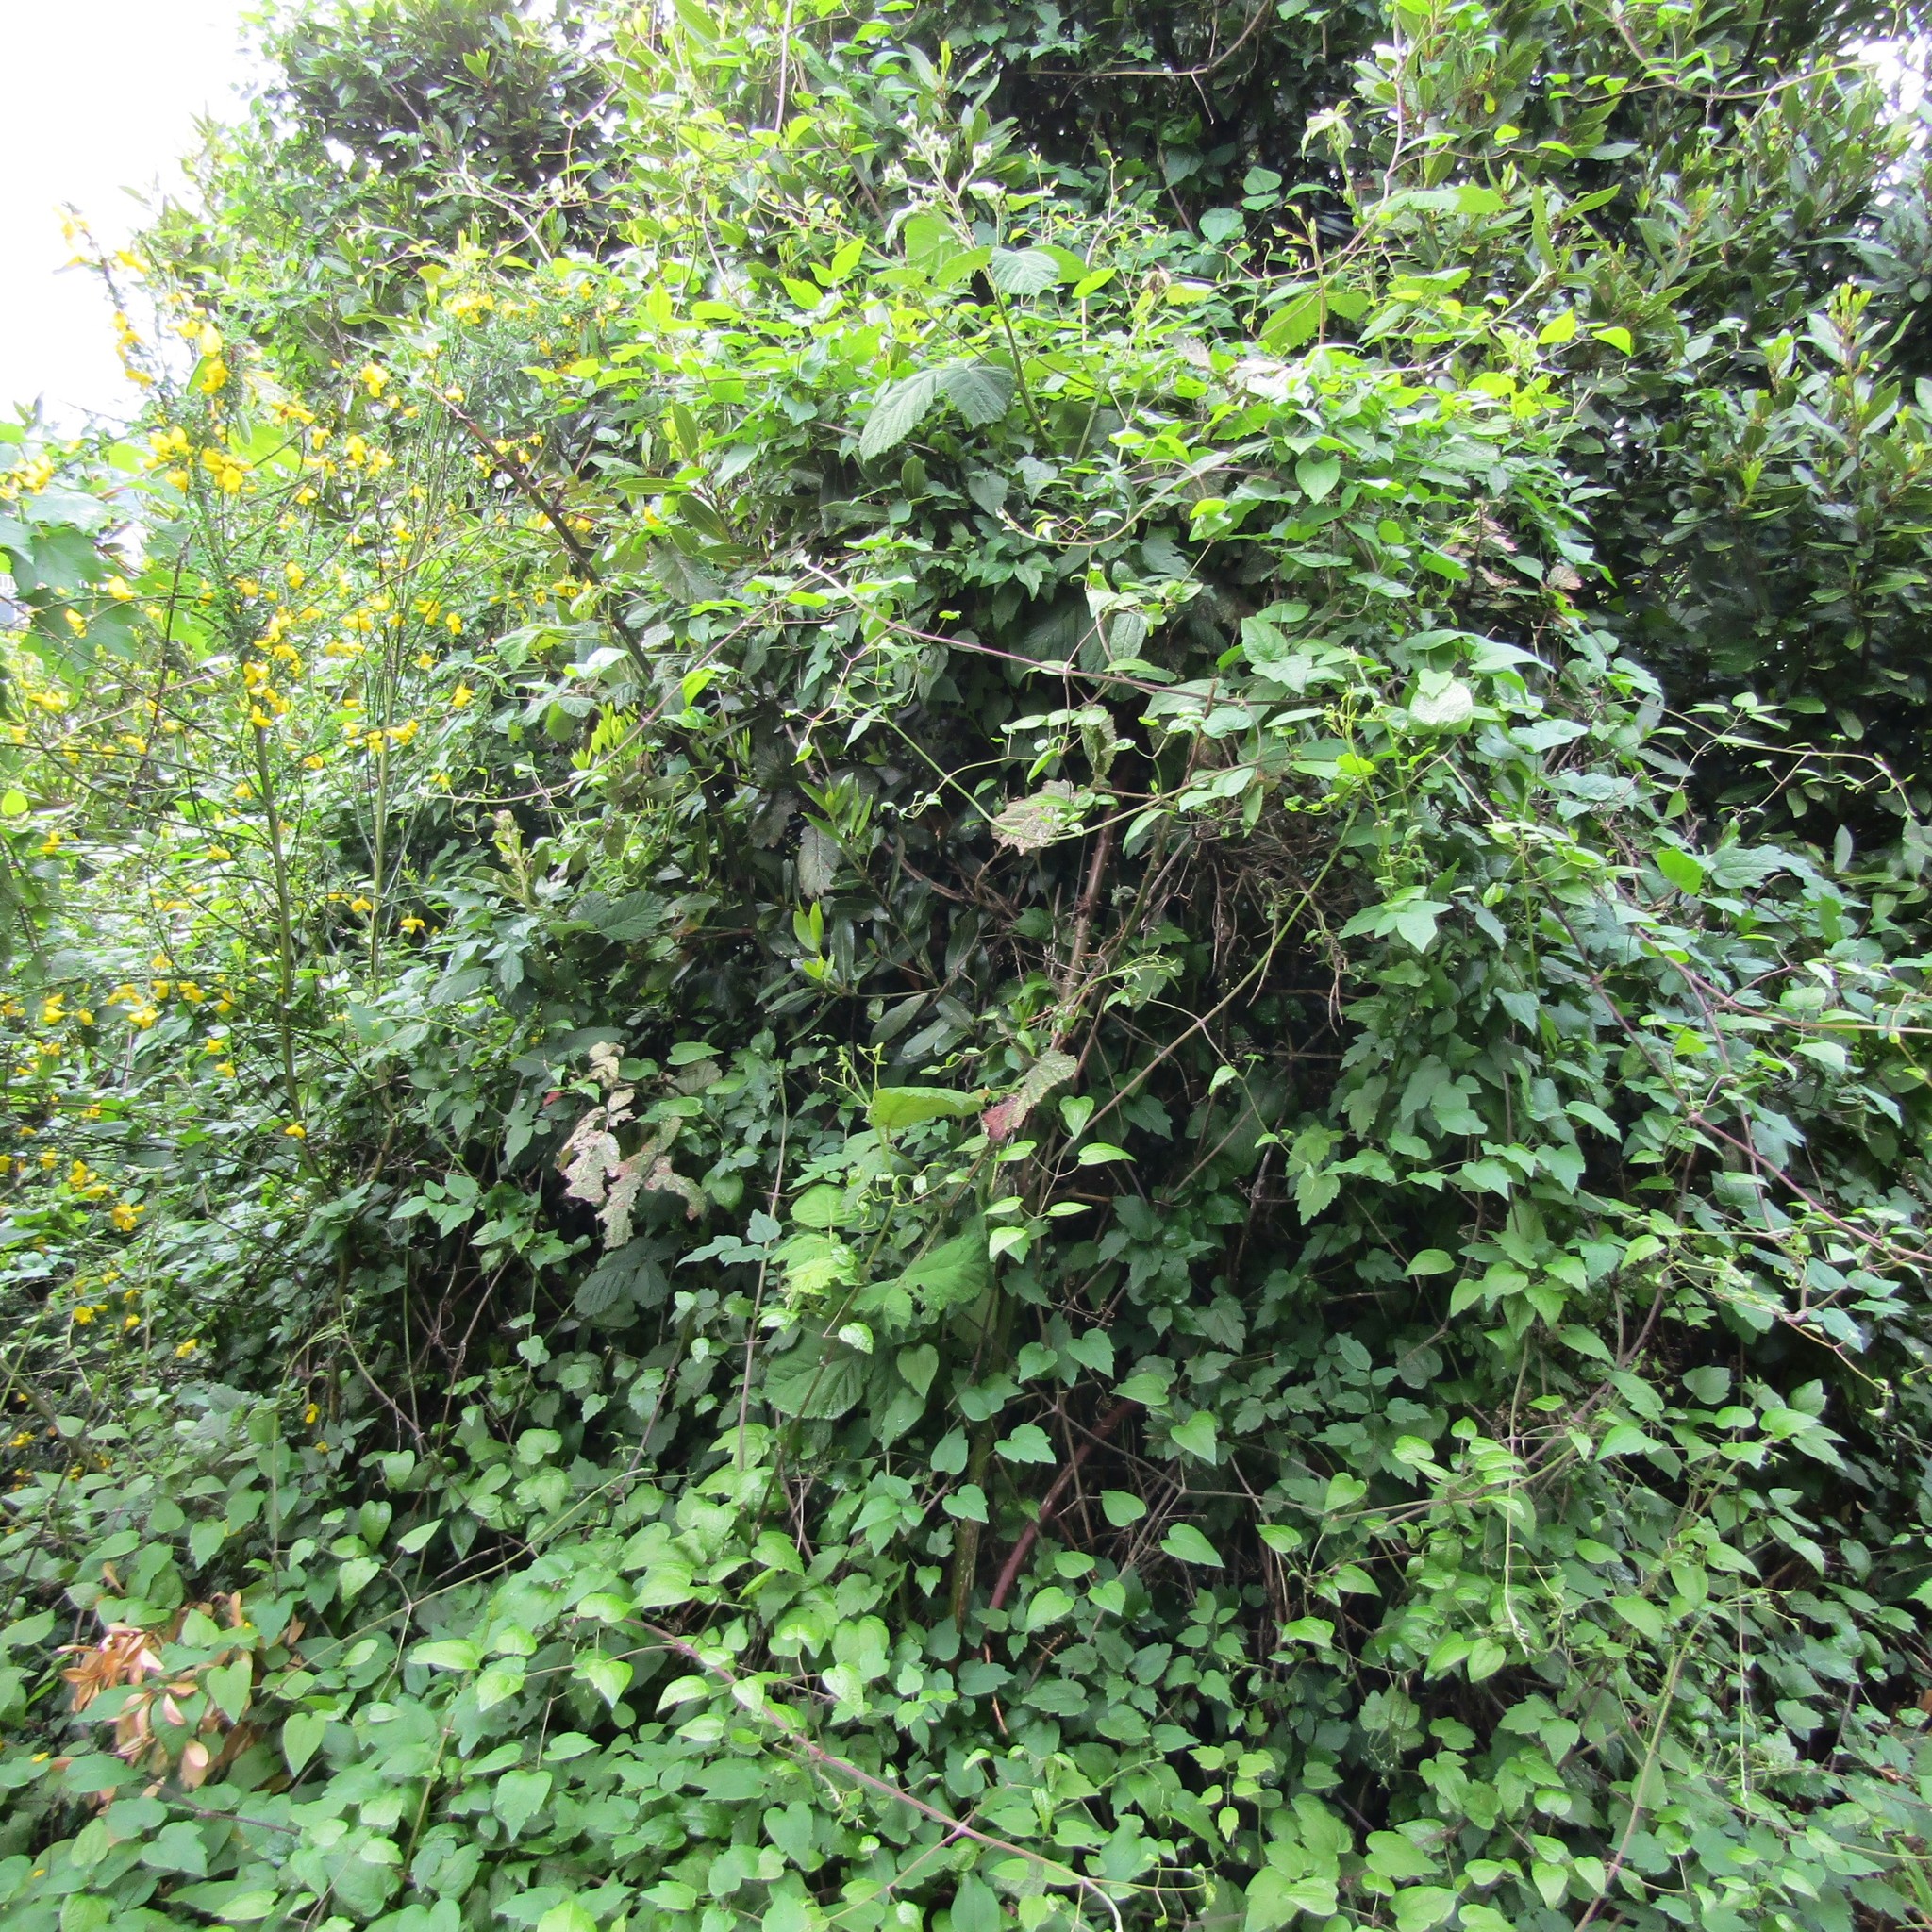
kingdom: Plantae
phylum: Tracheophyta
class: Magnoliopsida
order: Ranunculales
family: Ranunculaceae
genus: Clematis
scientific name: Clematis vitalba
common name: Evergreen clematis
